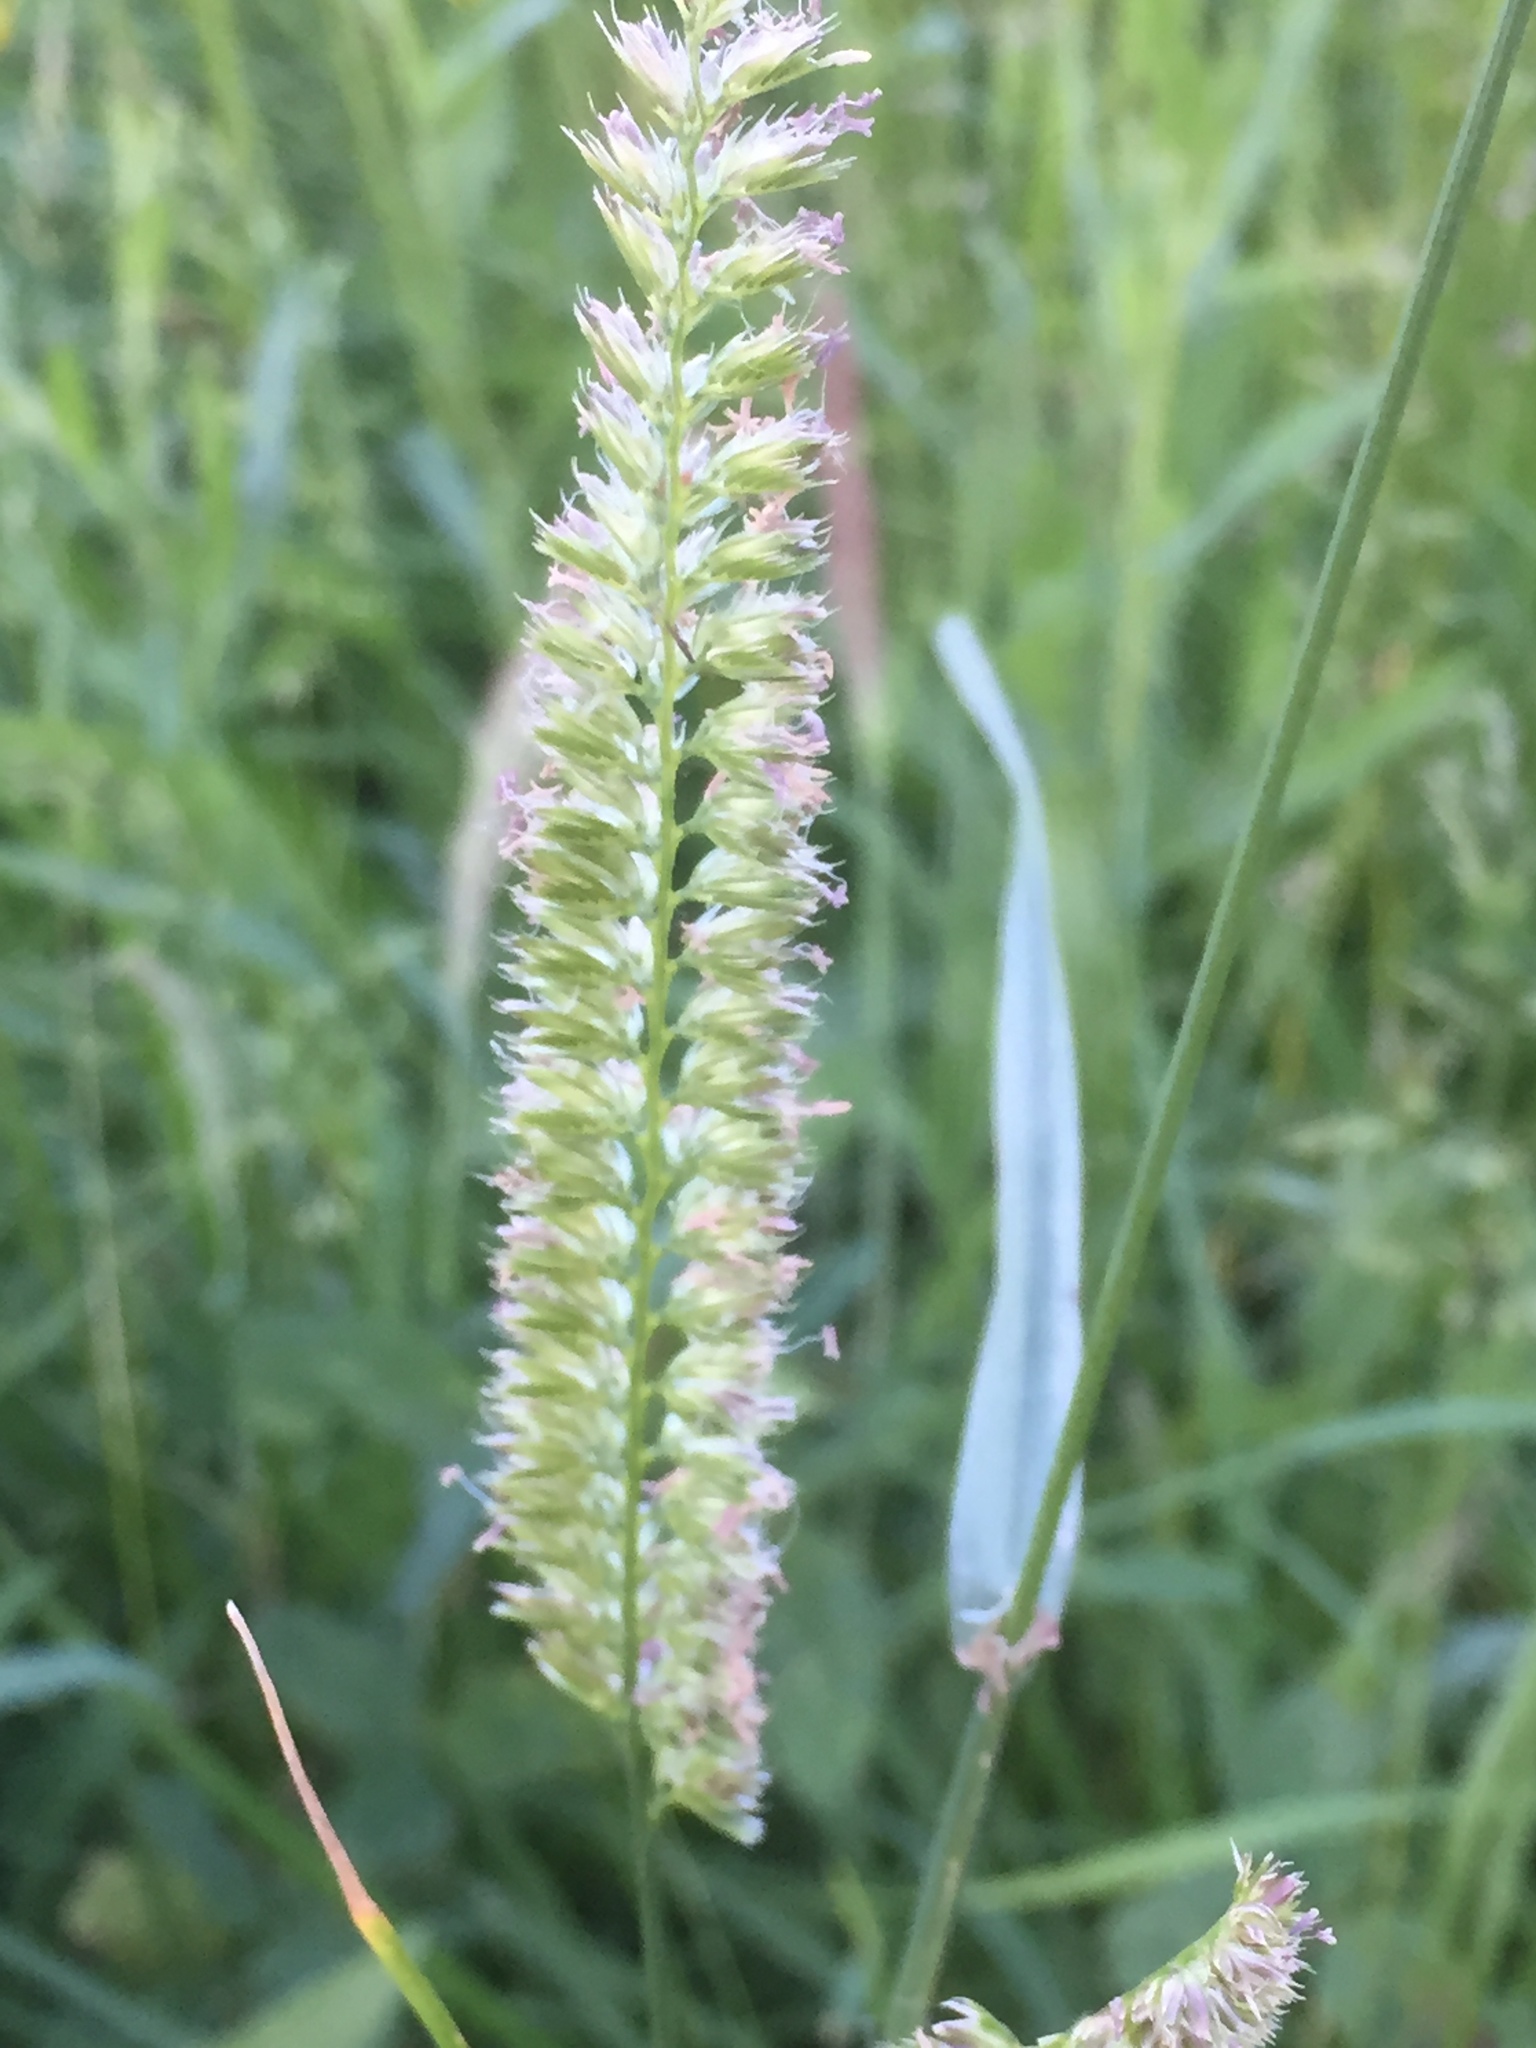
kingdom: Plantae
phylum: Tracheophyta
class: Liliopsida
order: Poales
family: Poaceae
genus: Cynosurus
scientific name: Cynosurus cristatus
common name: Crested dog's-tail
